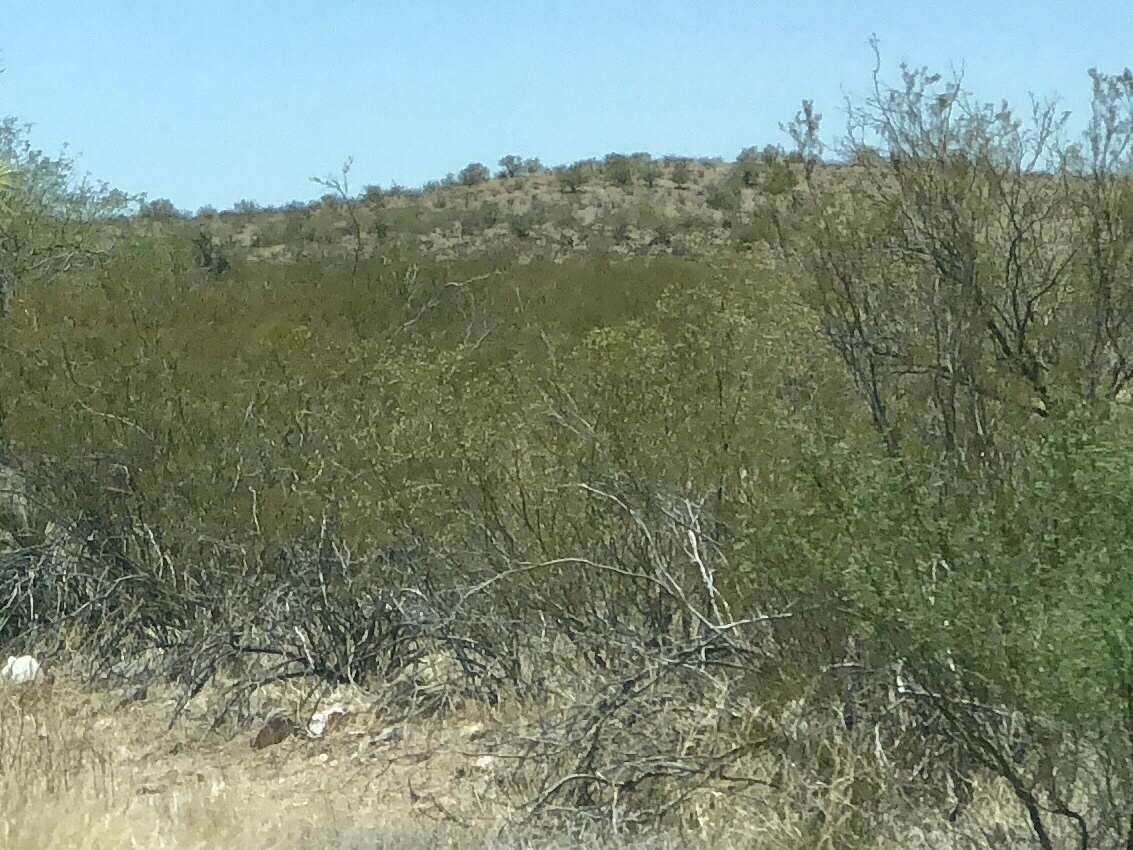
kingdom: Plantae
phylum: Tracheophyta
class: Magnoliopsida
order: Zygophyllales
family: Zygophyllaceae
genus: Larrea
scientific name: Larrea tridentata
